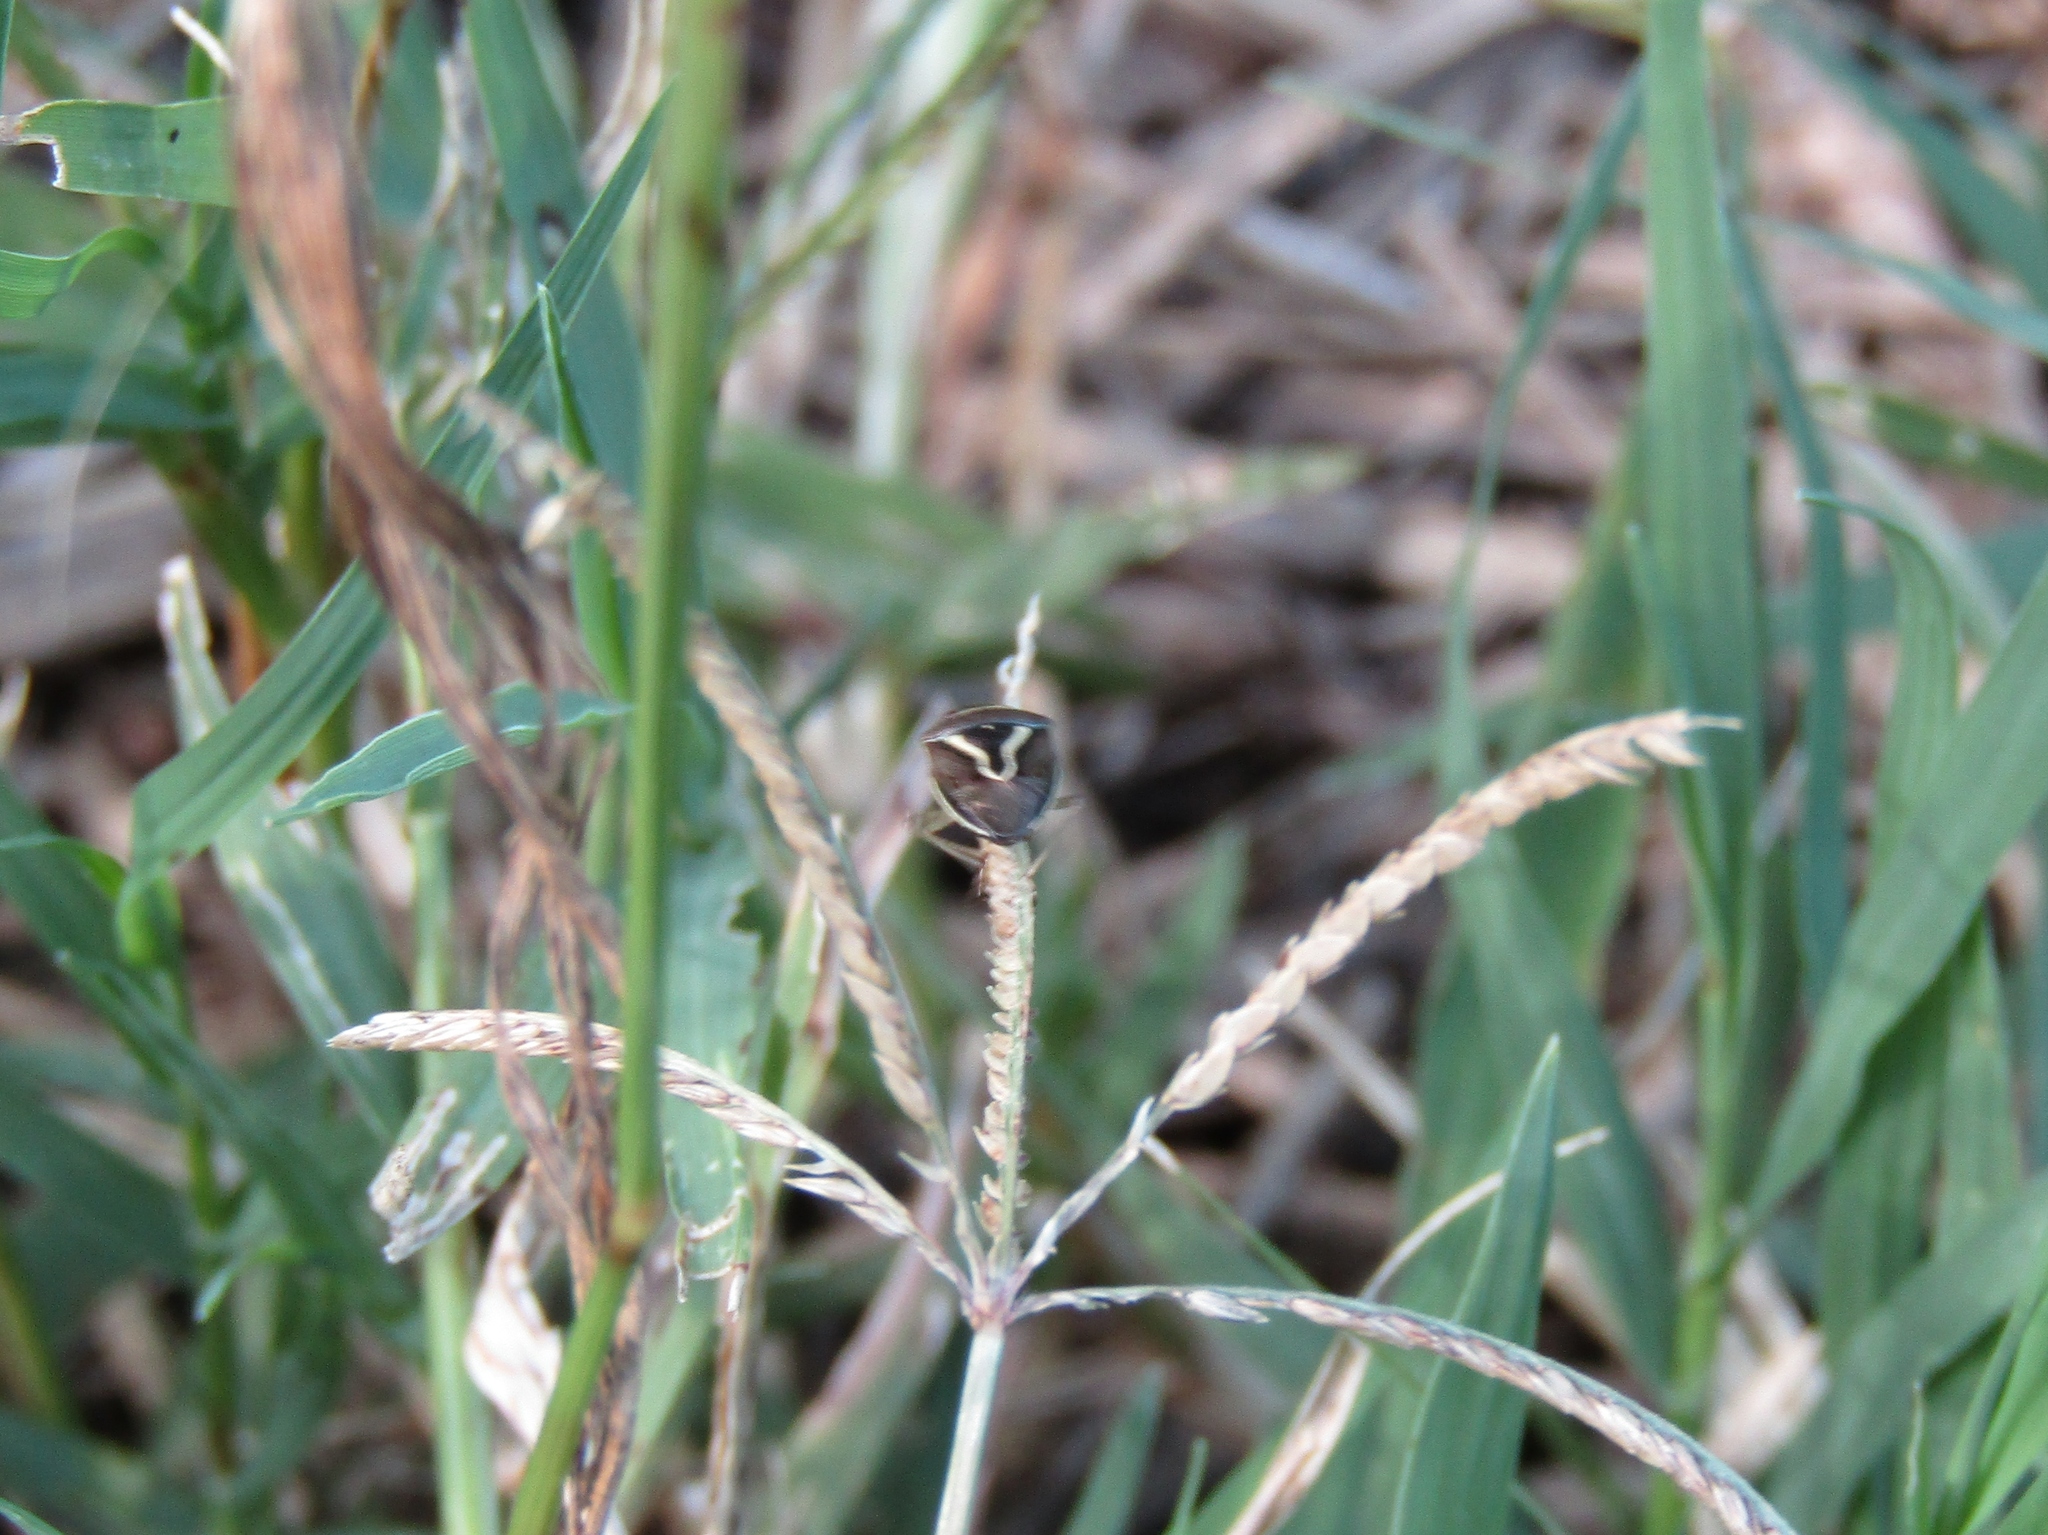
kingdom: Animalia
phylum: Arthropoda
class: Insecta
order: Hemiptera
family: Pentatomidae
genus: Mormidea
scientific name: Mormidea lugens
